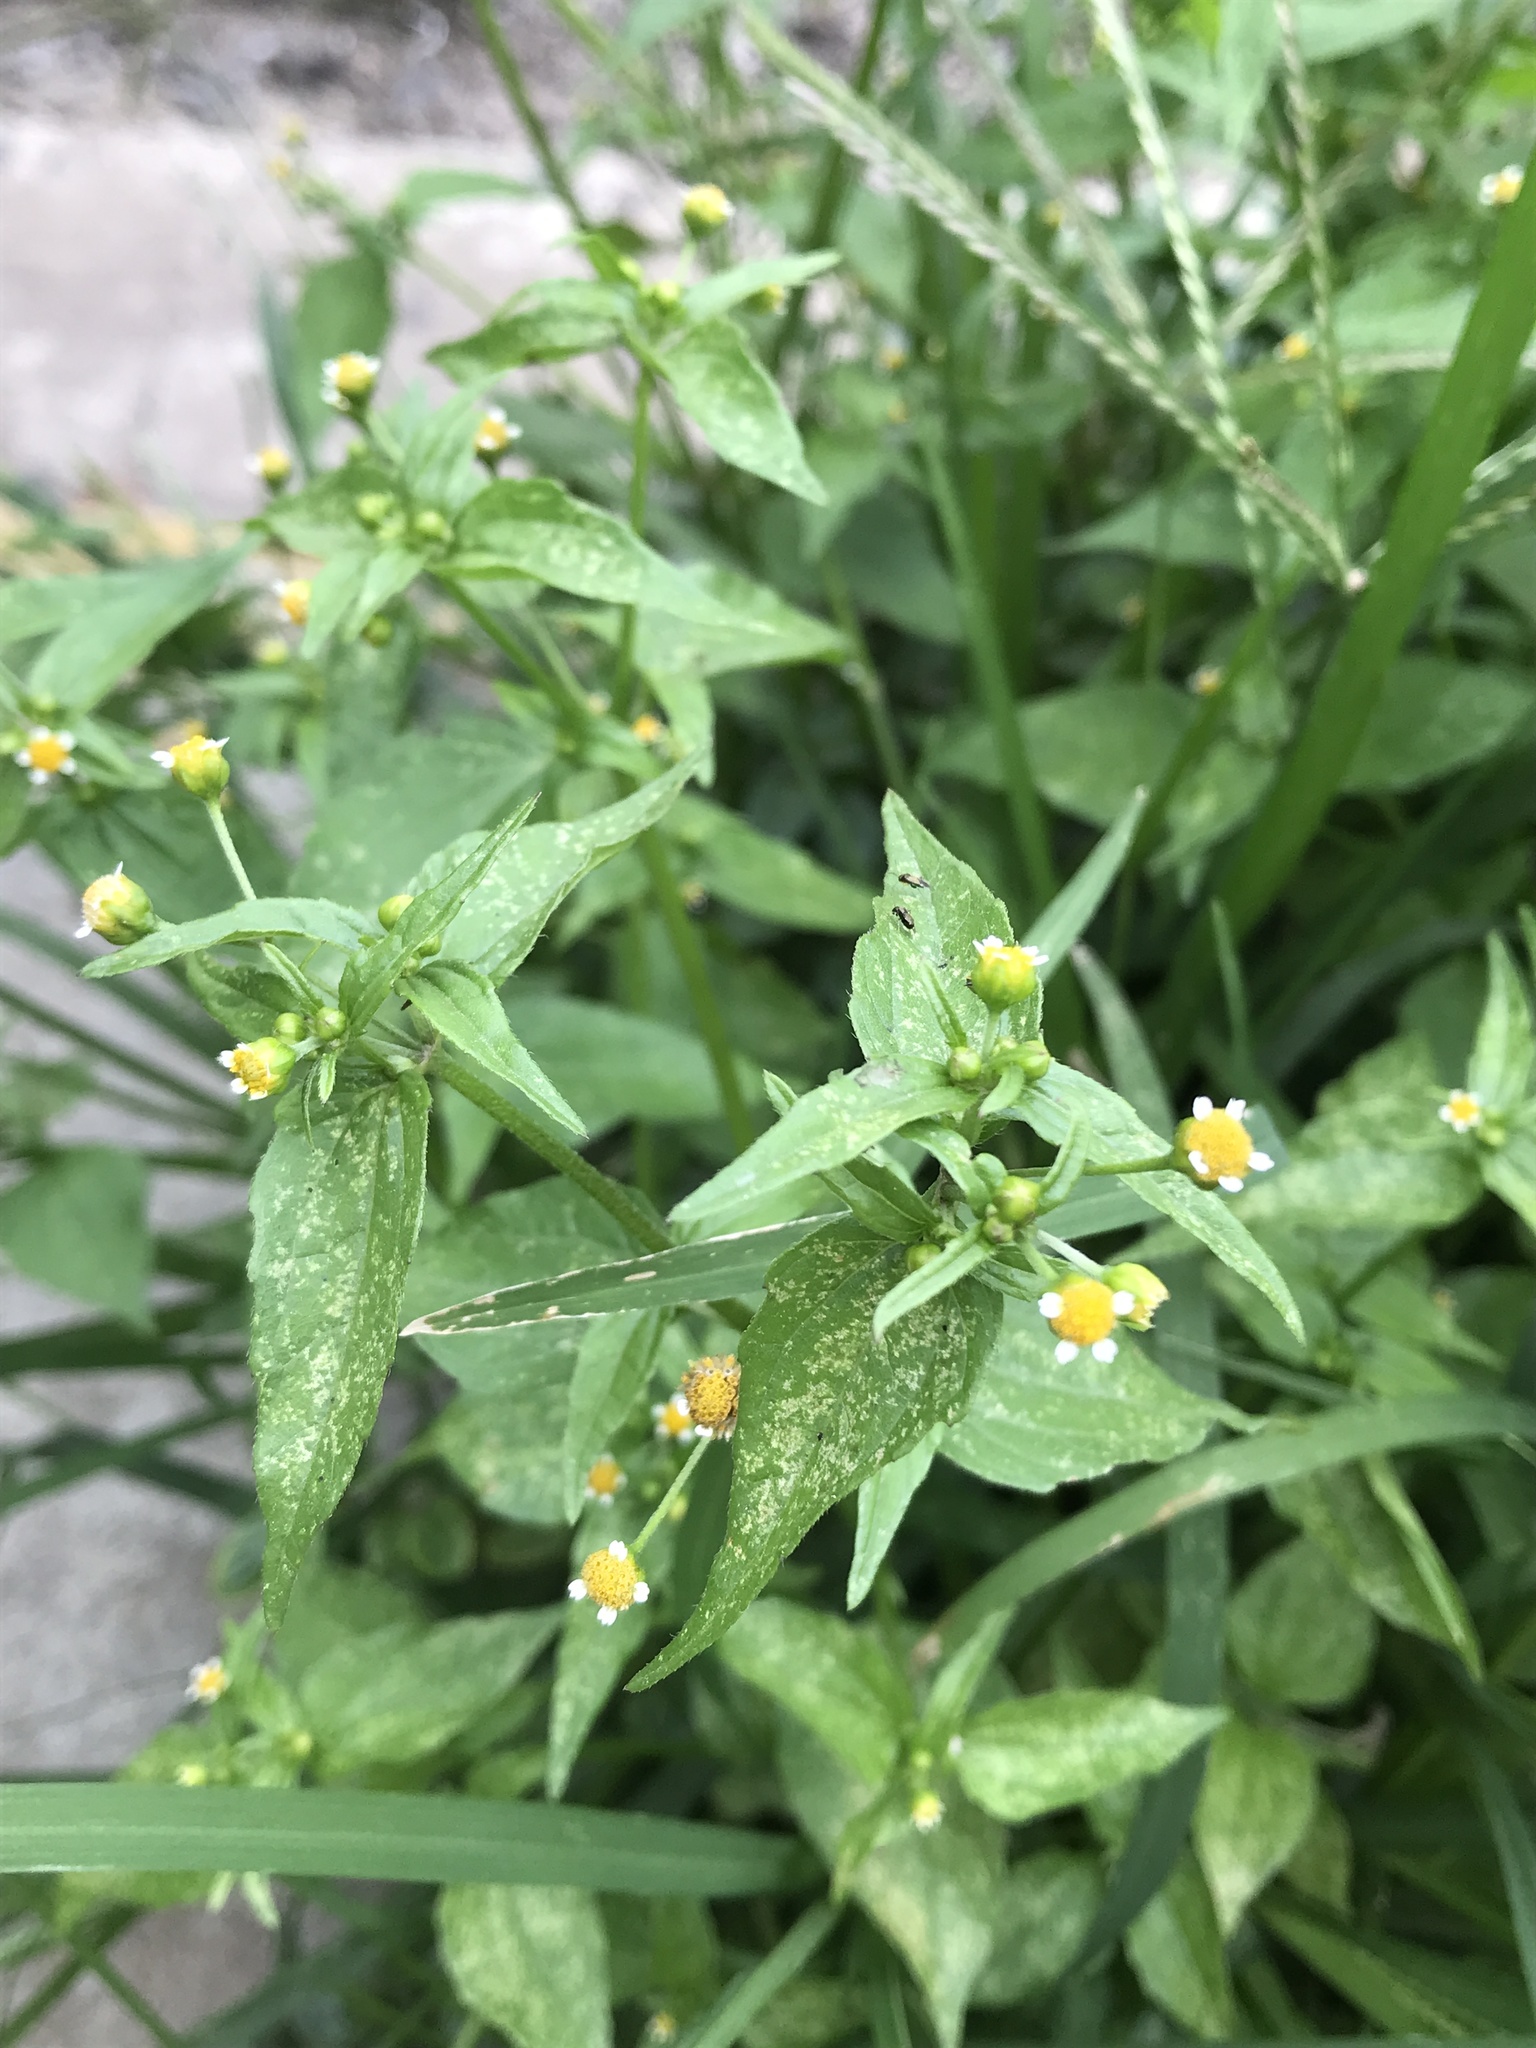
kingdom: Plantae
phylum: Tracheophyta
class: Magnoliopsida
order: Asterales
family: Asteraceae
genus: Galinsoga
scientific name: Galinsoga parviflora
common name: Gallant soldier
